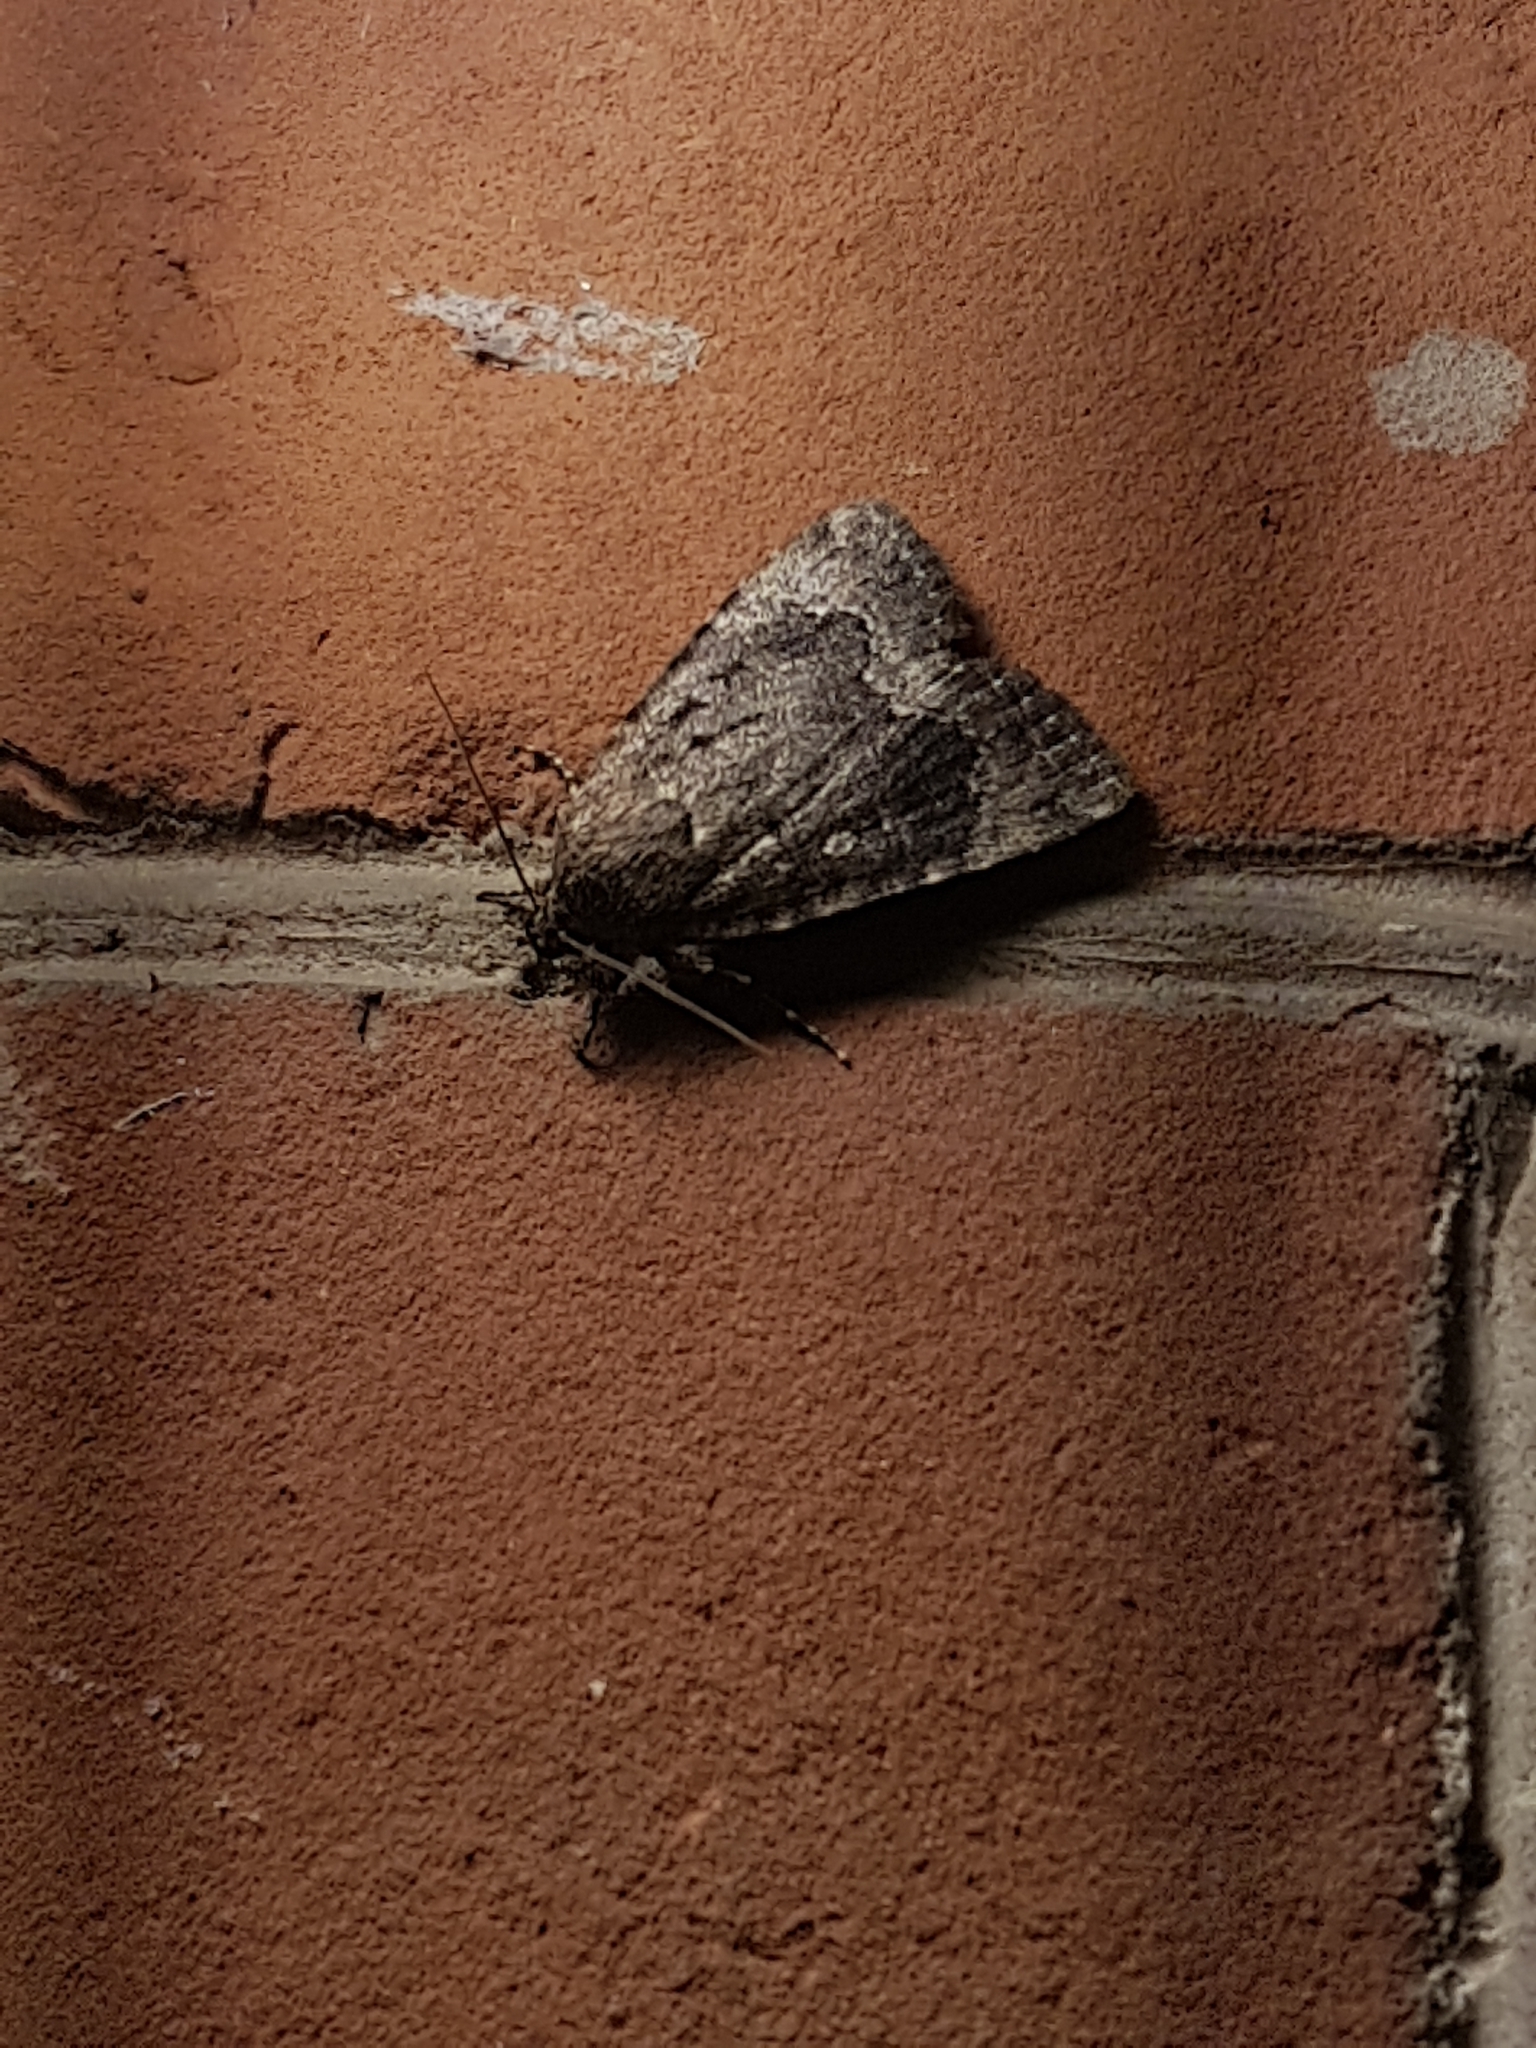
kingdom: Animalia
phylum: Arthropoda
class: Insecta
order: Lepidoptera
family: Noctuidae
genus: Amphipyra
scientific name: Amphipyra pyramidoides
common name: American copper underwing
